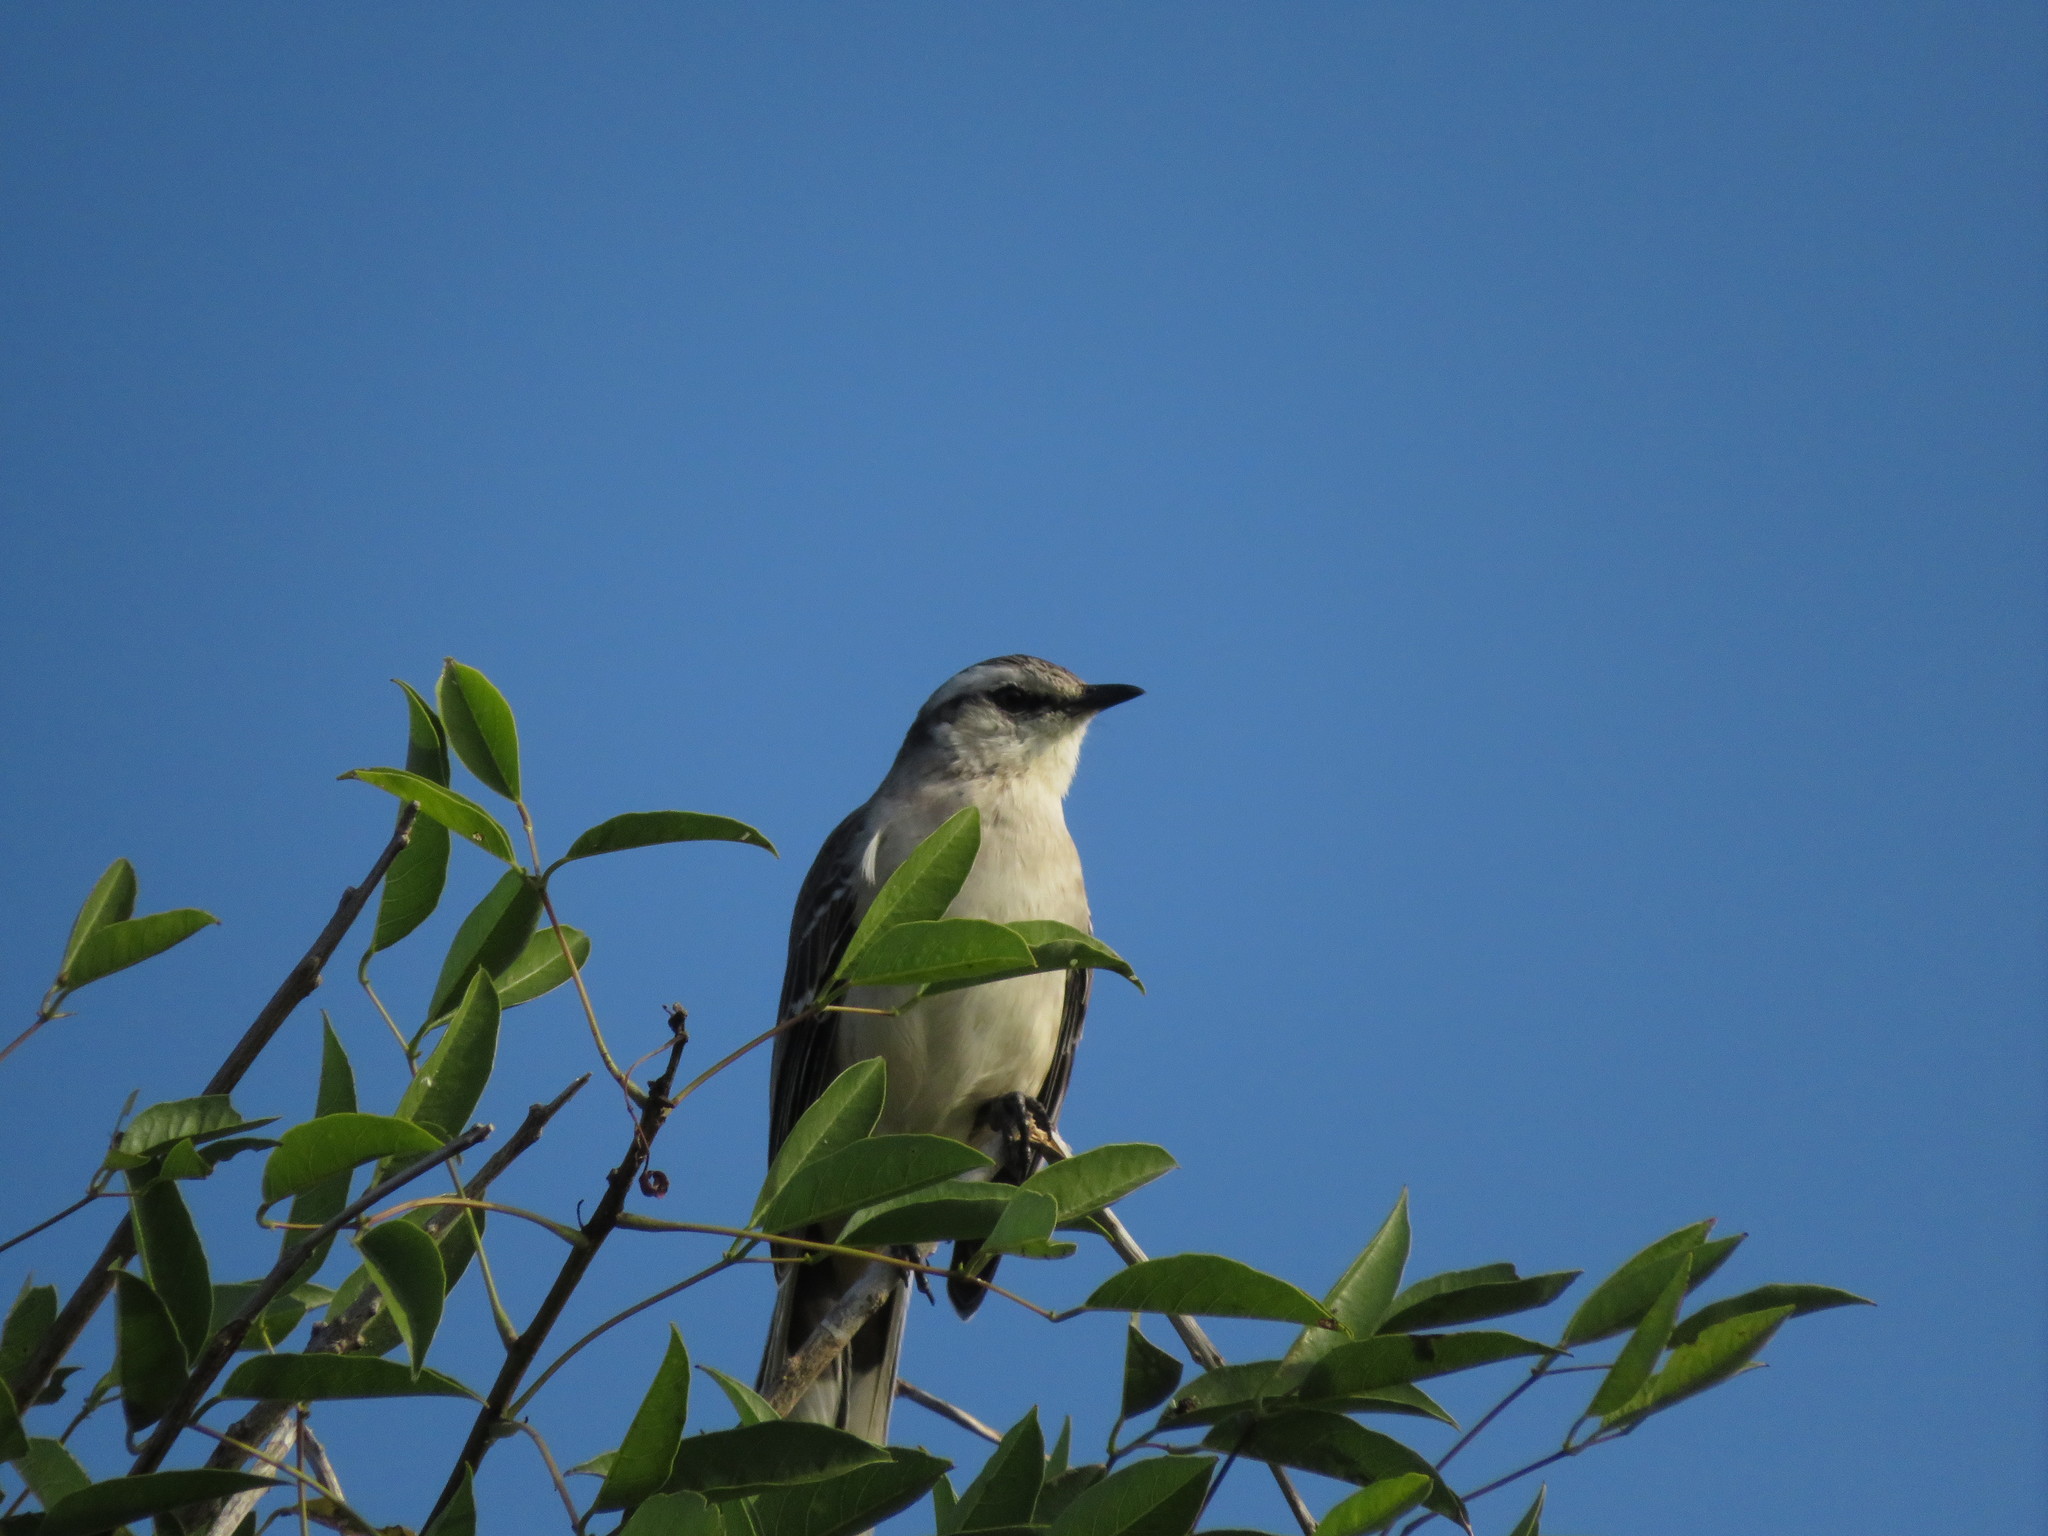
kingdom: Animalia
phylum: Chordata
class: Aves
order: Passeriformes
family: Mimidae
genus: Mimus
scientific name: Mimus saturninus
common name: Chalk-browed mockingbird
